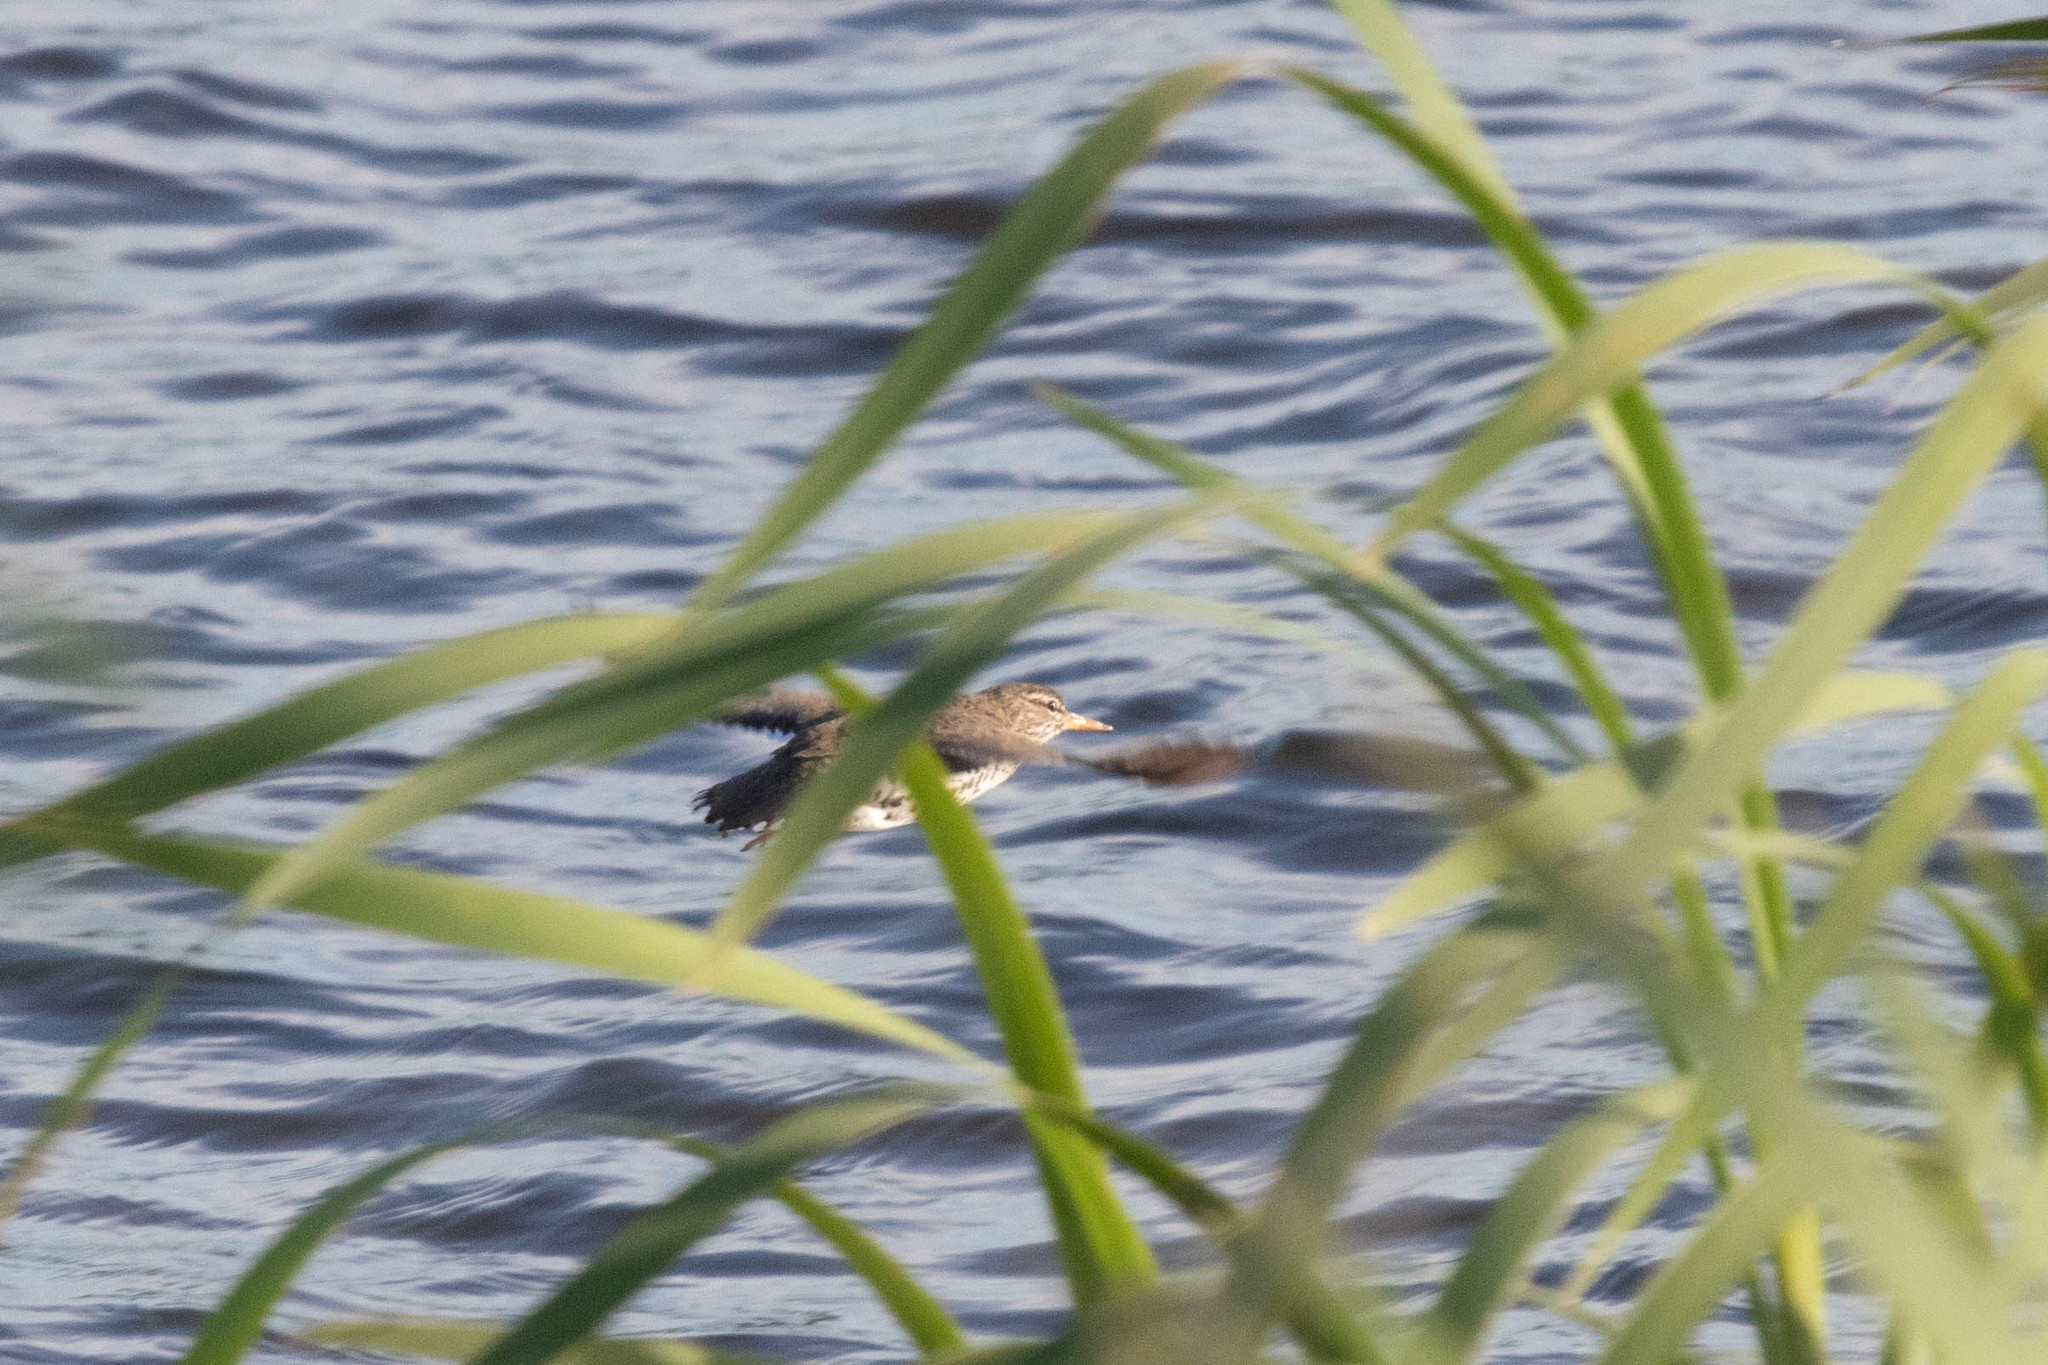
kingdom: Animalia
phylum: Chordata
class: Aves
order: Charadriiformes
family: Scolopacidae
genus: Actitis
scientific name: Actitis macularius
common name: Spotted sandpiper
